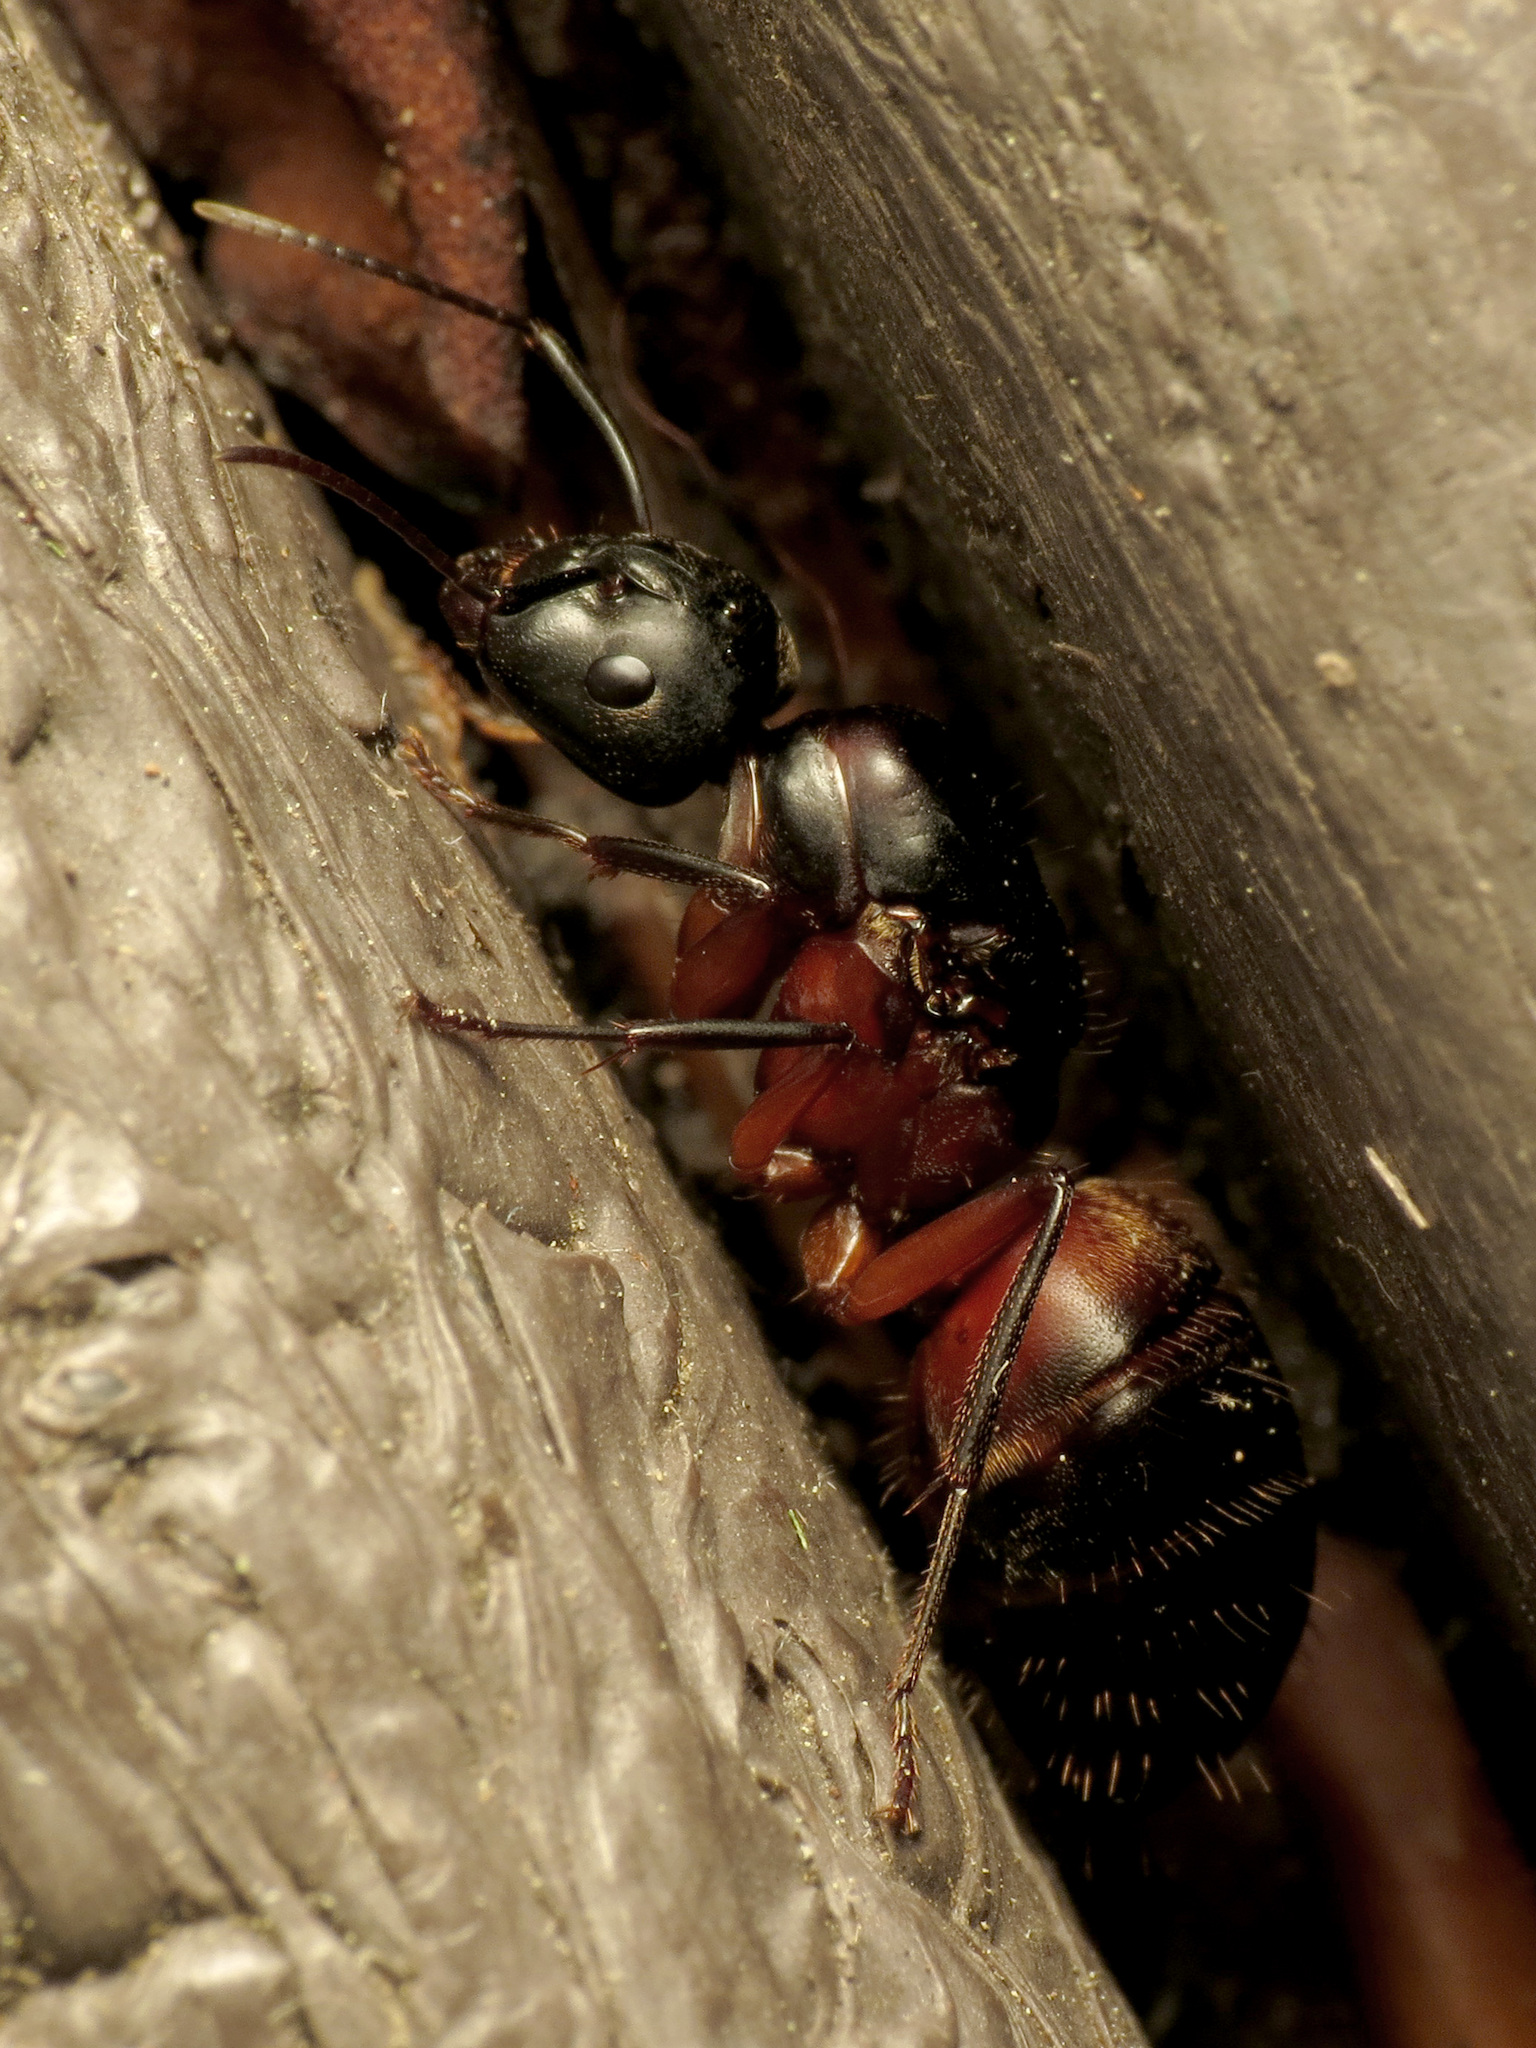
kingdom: Animalia
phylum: Arthropoda
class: Insecta
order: Hymenoptera
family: Formicidae
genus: Camponotus
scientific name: Camponotus chromaiodes
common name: Red carpenter ant
